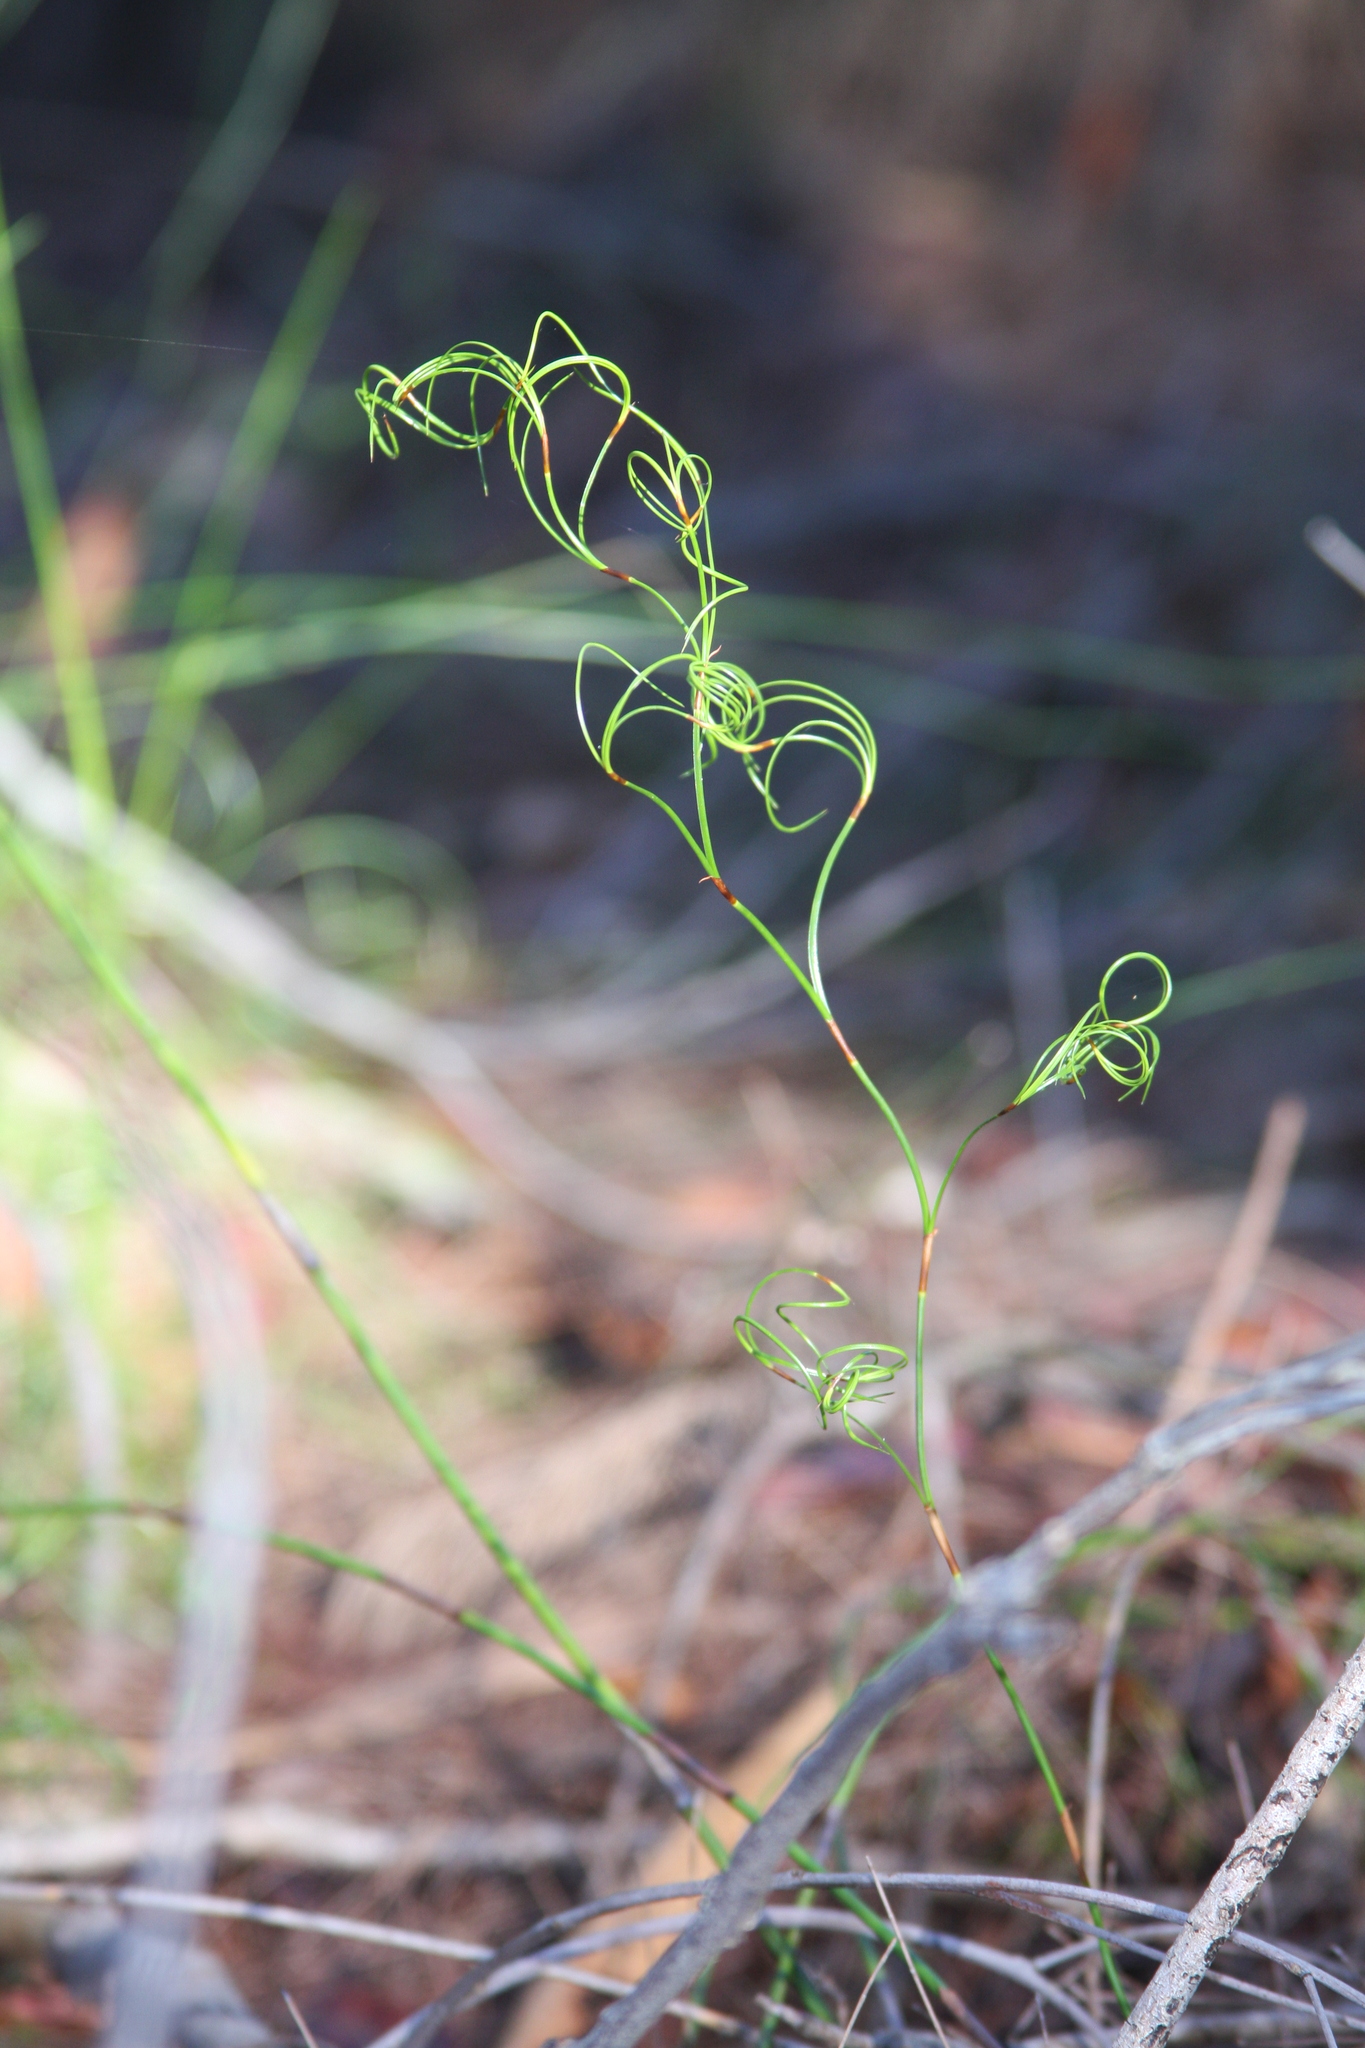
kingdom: Plantae
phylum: Tracheophyta
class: Liliopsida
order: Poales
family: Cyperaceae
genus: Caustis
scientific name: Caustis flexuosa
